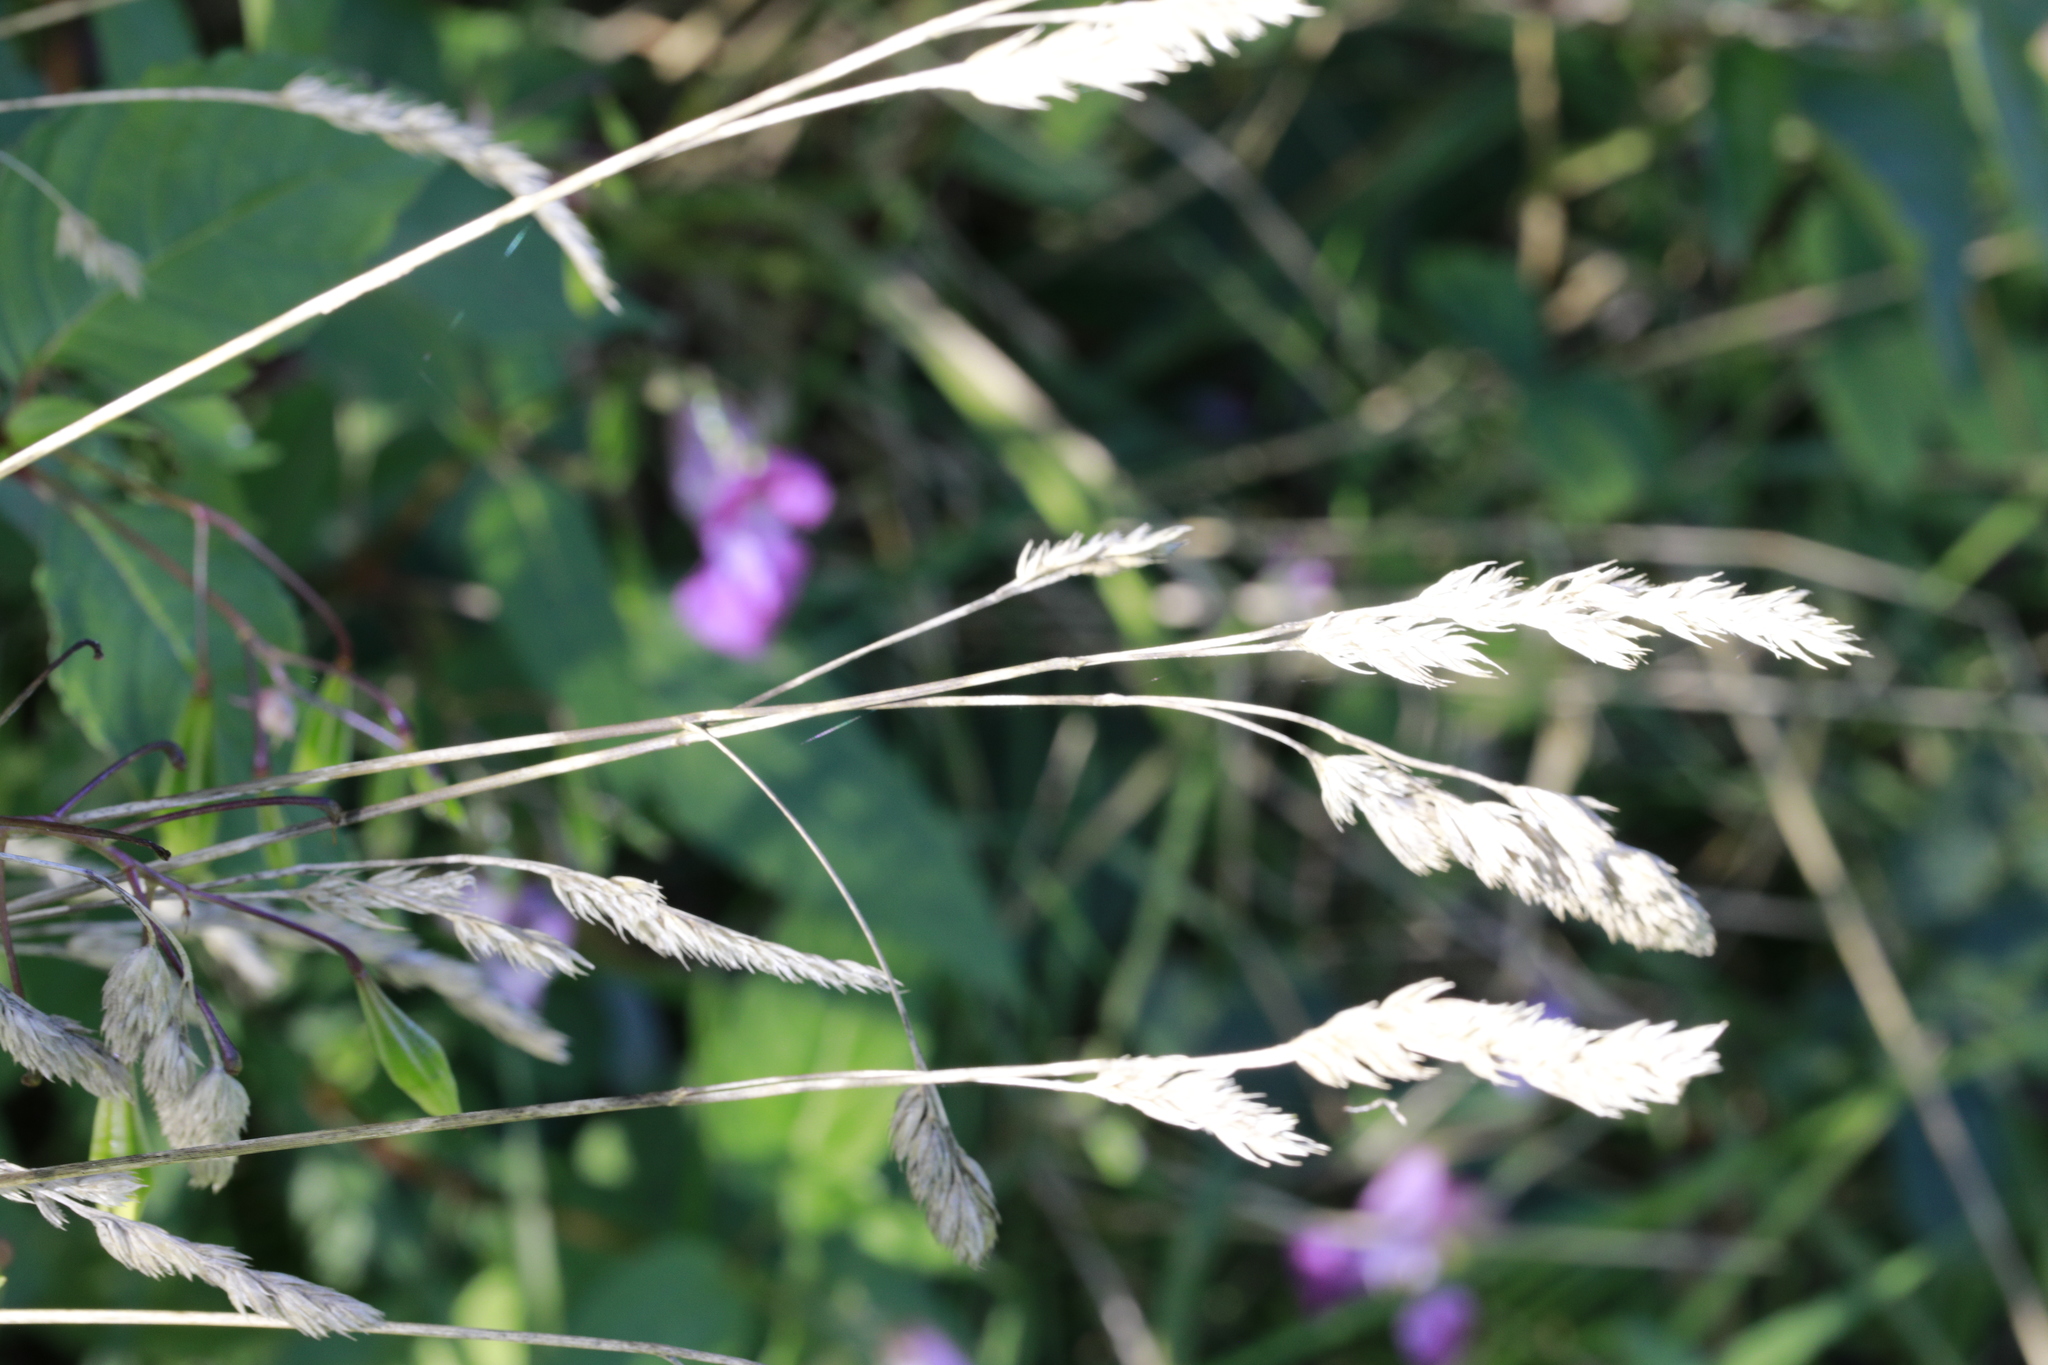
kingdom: Plantae
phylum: Tracheophyta
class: Liliopsida
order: Poales
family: Poaceae
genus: Dactylis
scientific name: Dactylis glomerata
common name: Orchardgrass
